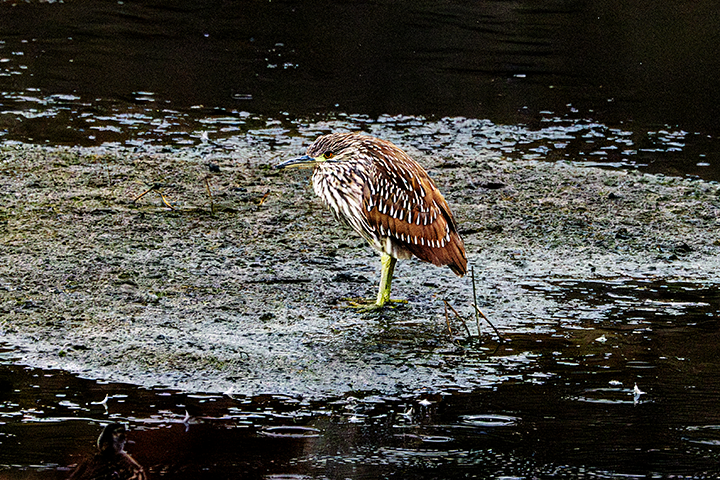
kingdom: Animalia
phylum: Chordata
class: Aves
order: Pelecaniformes
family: Ardeidae
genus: Nycticorax
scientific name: Nycticorax nycticorax
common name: Black-crowned night heron
